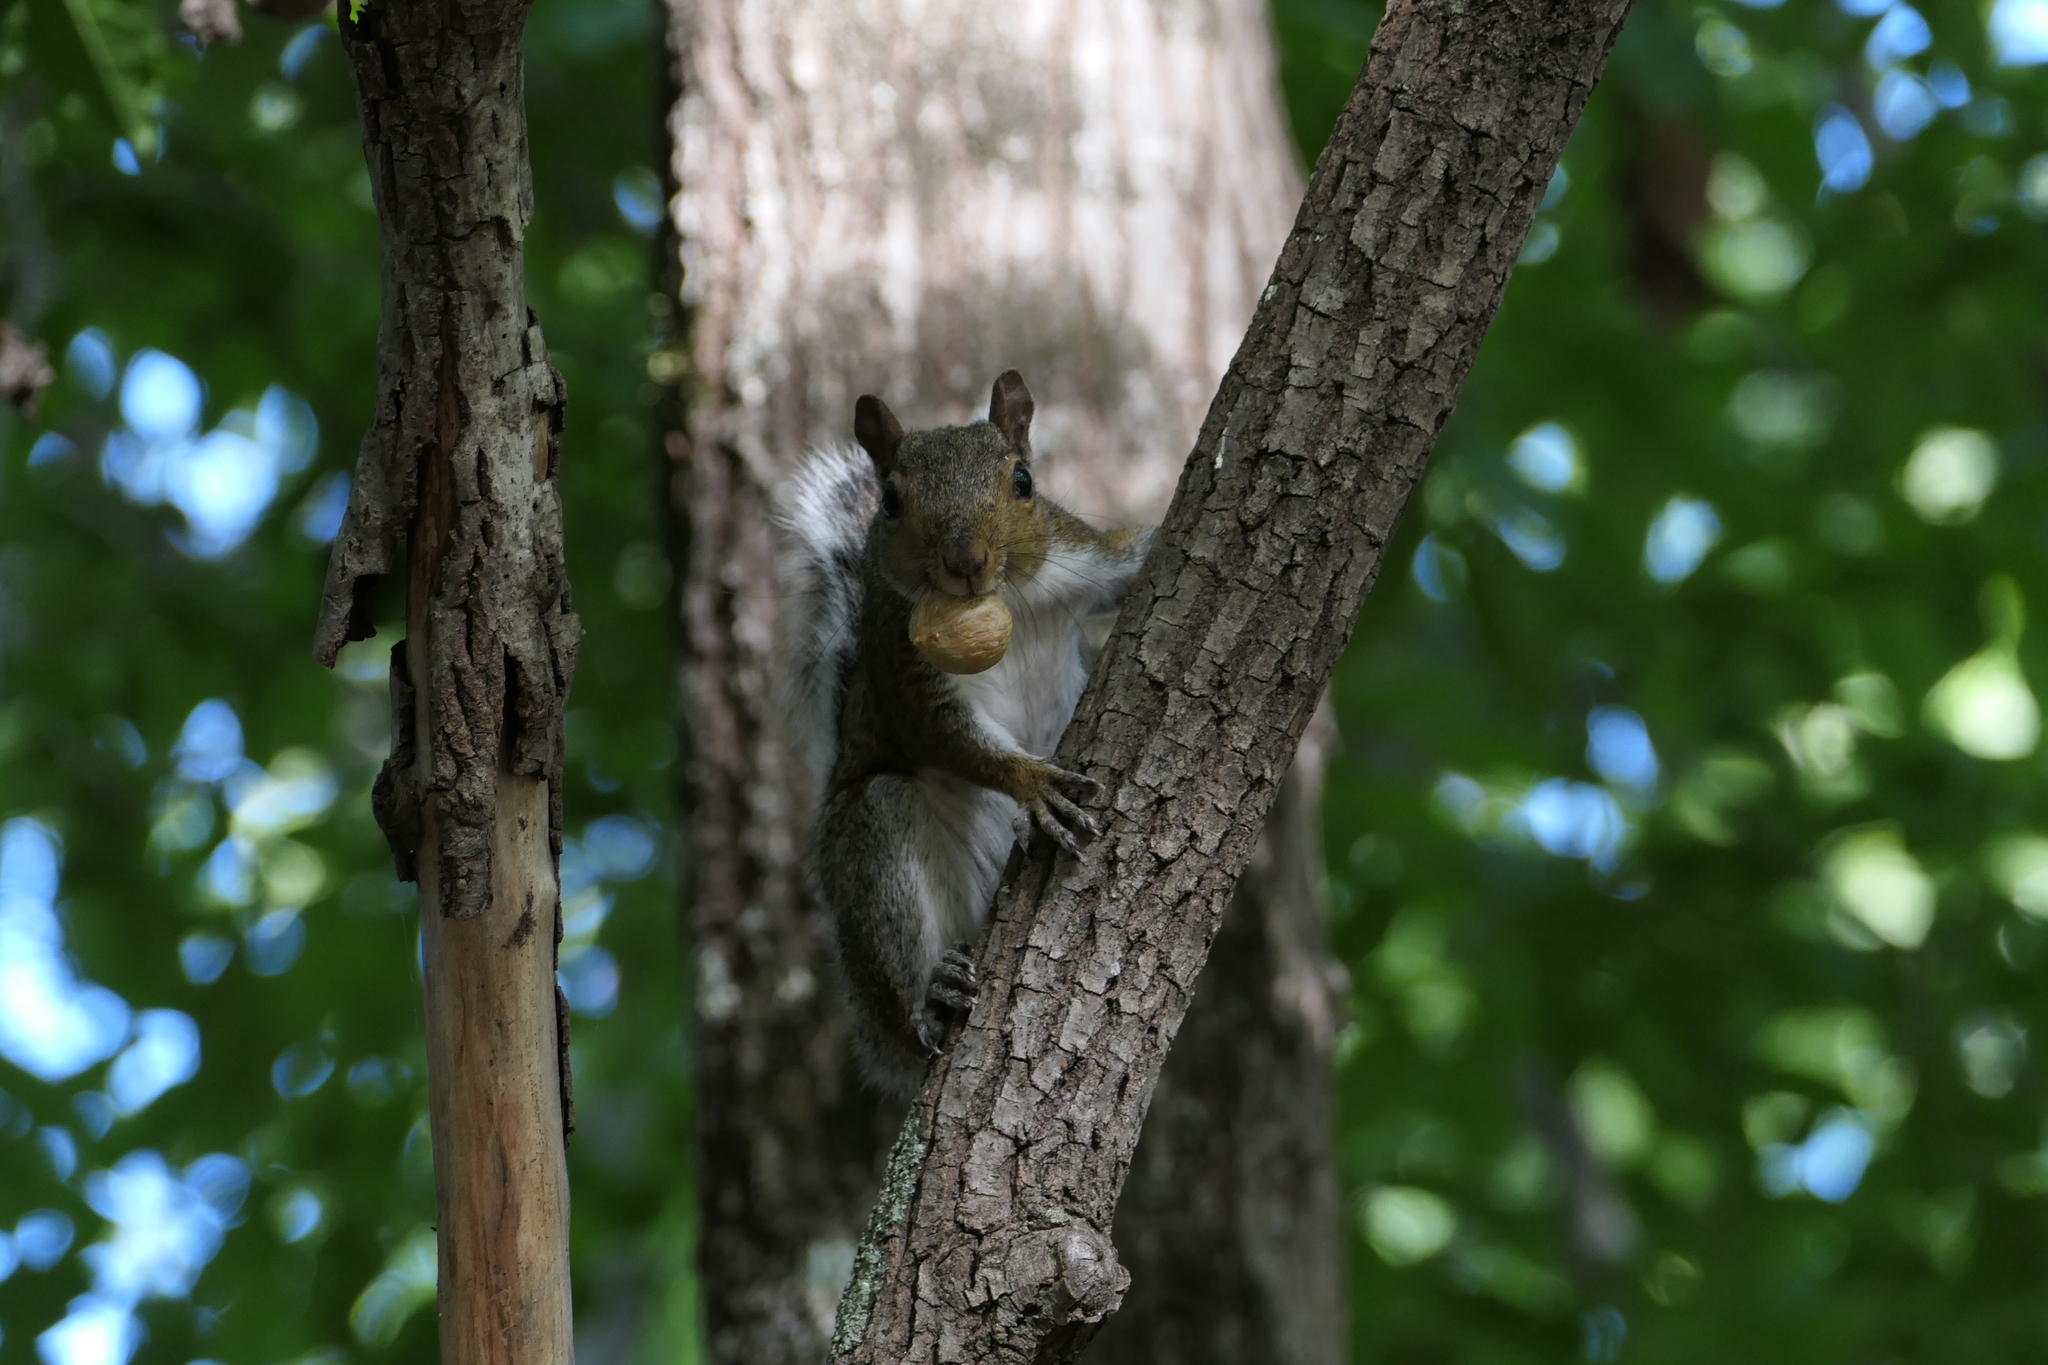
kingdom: Animalia
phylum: Chordata
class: Mammalia
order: Rodentia
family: Sciuridae
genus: Sciurus
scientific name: Sciurus carolinensis
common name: Eastern gray squirrel
